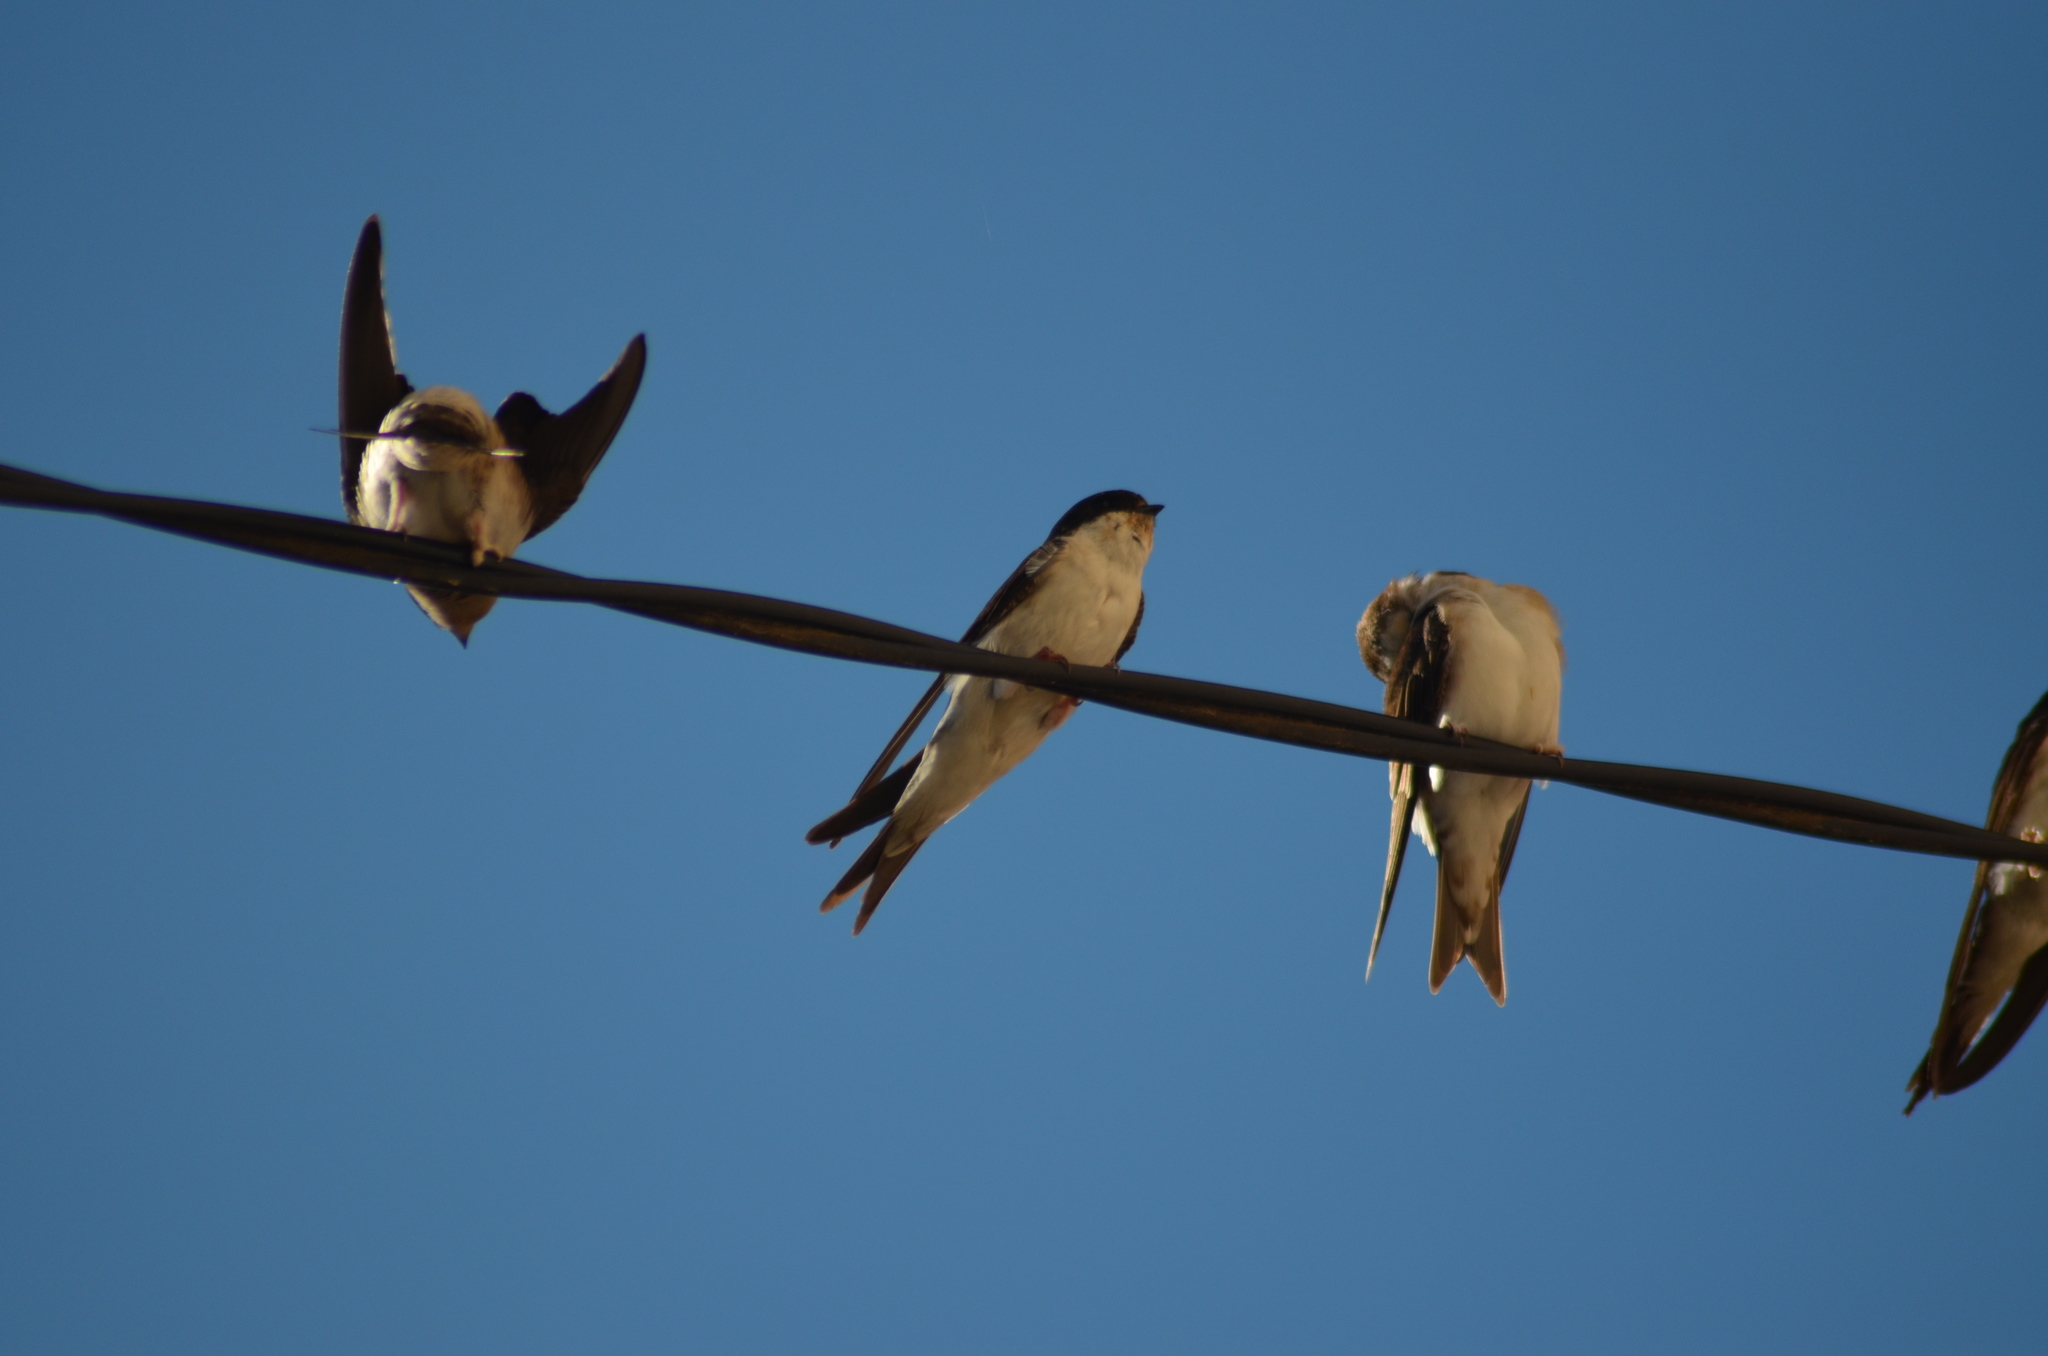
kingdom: Animalia
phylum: Chordata
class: Aves
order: Passeriformes
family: Hirundinidae
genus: Delichon
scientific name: Delichon urbicum
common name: Common house martin
